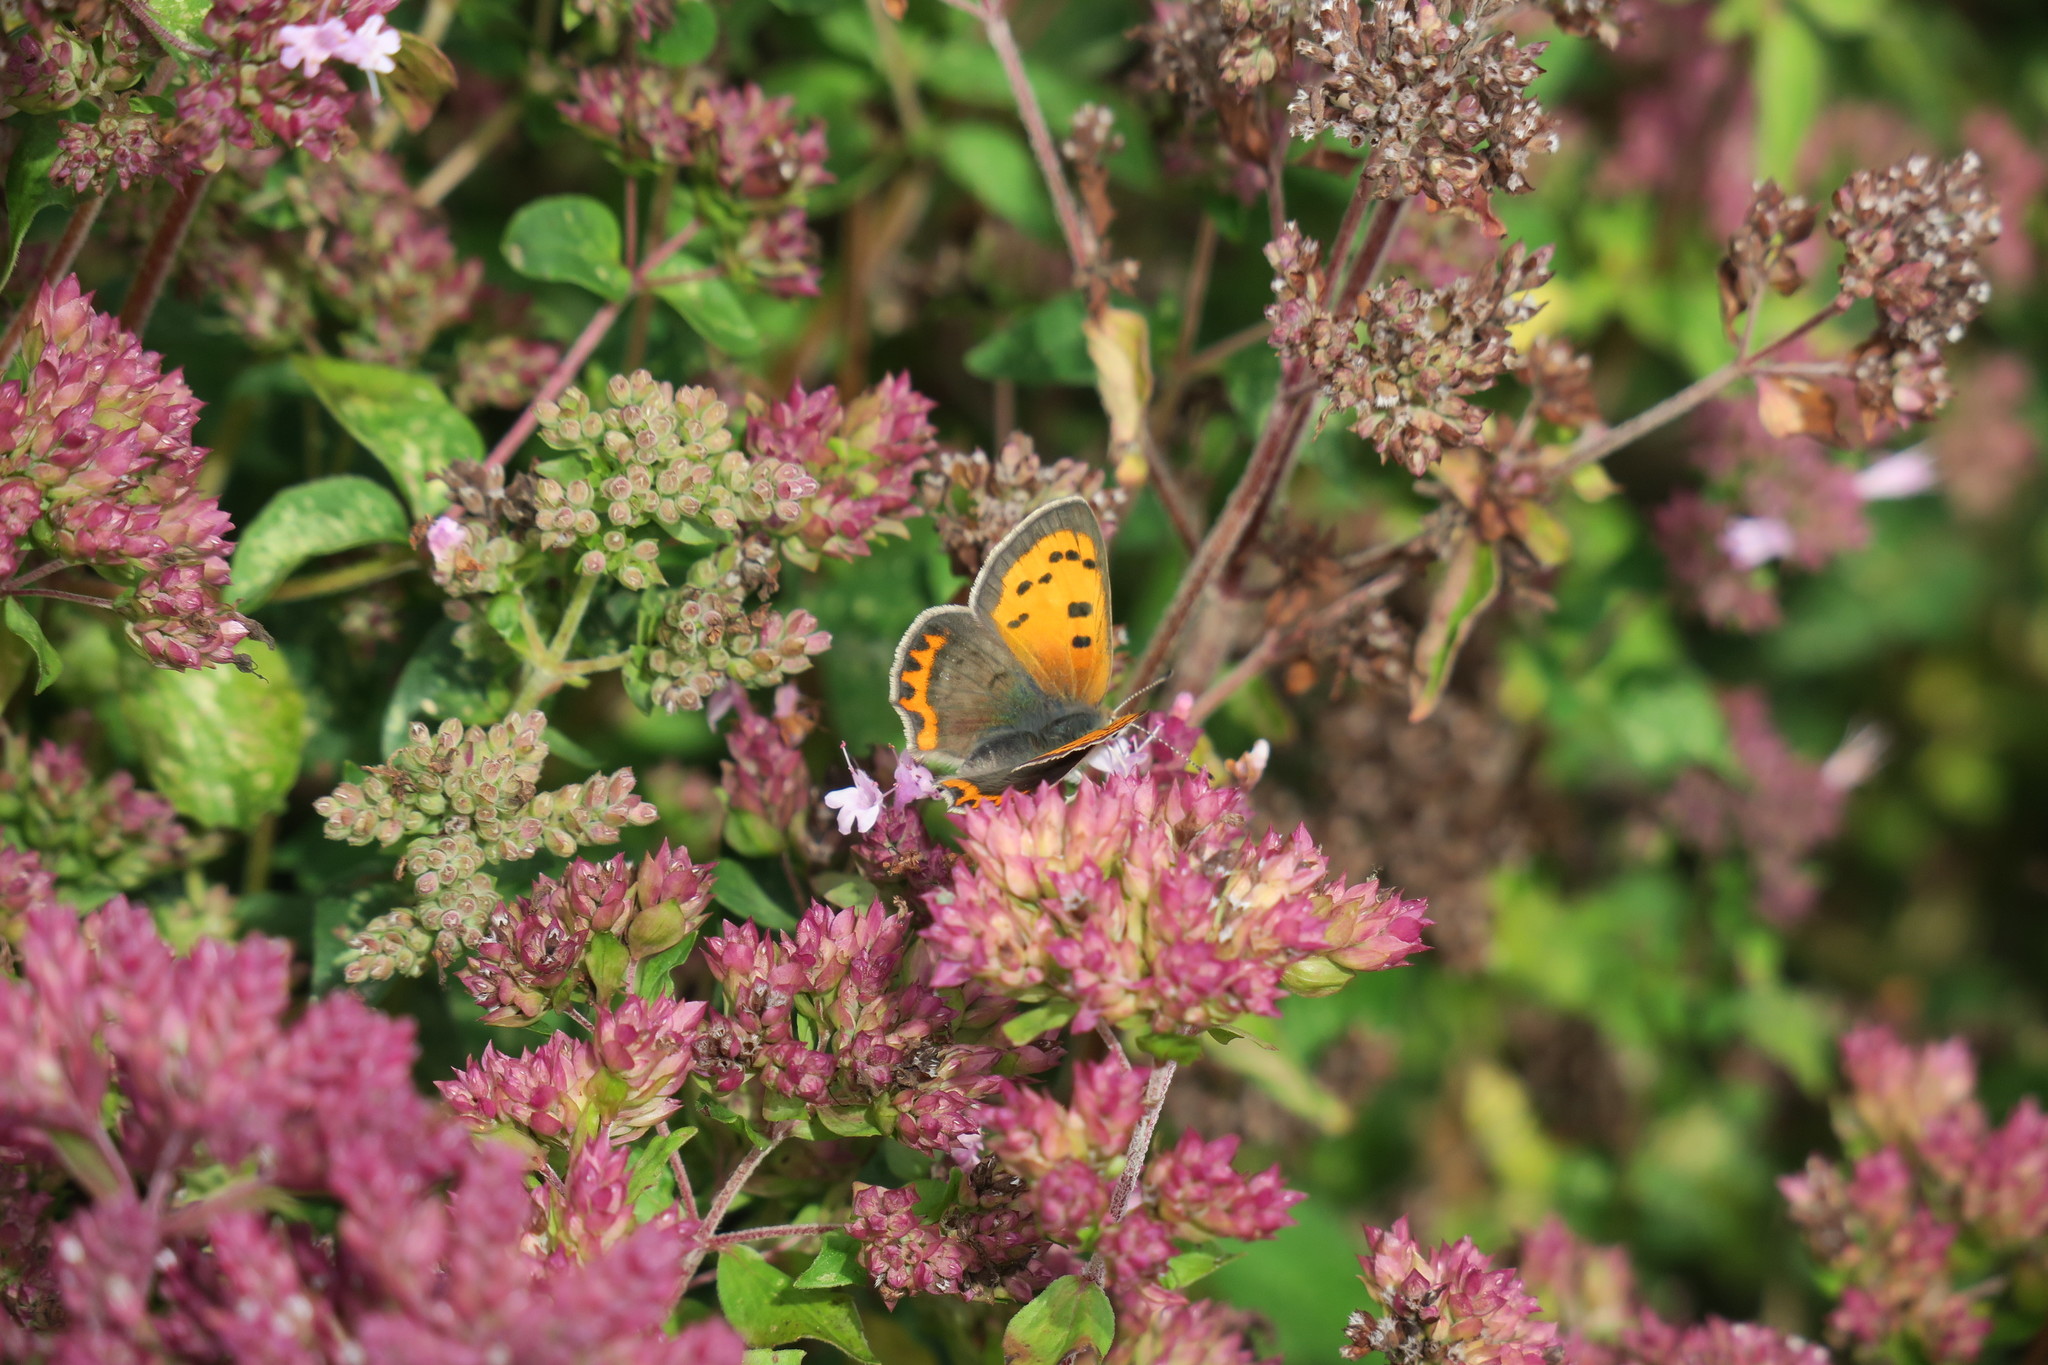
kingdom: Animalia
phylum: Arthropoda
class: Insecta
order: Lepidoptera
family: Lycaenidae
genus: Lycaena
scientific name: Lycaena phlaeas
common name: Small copper
